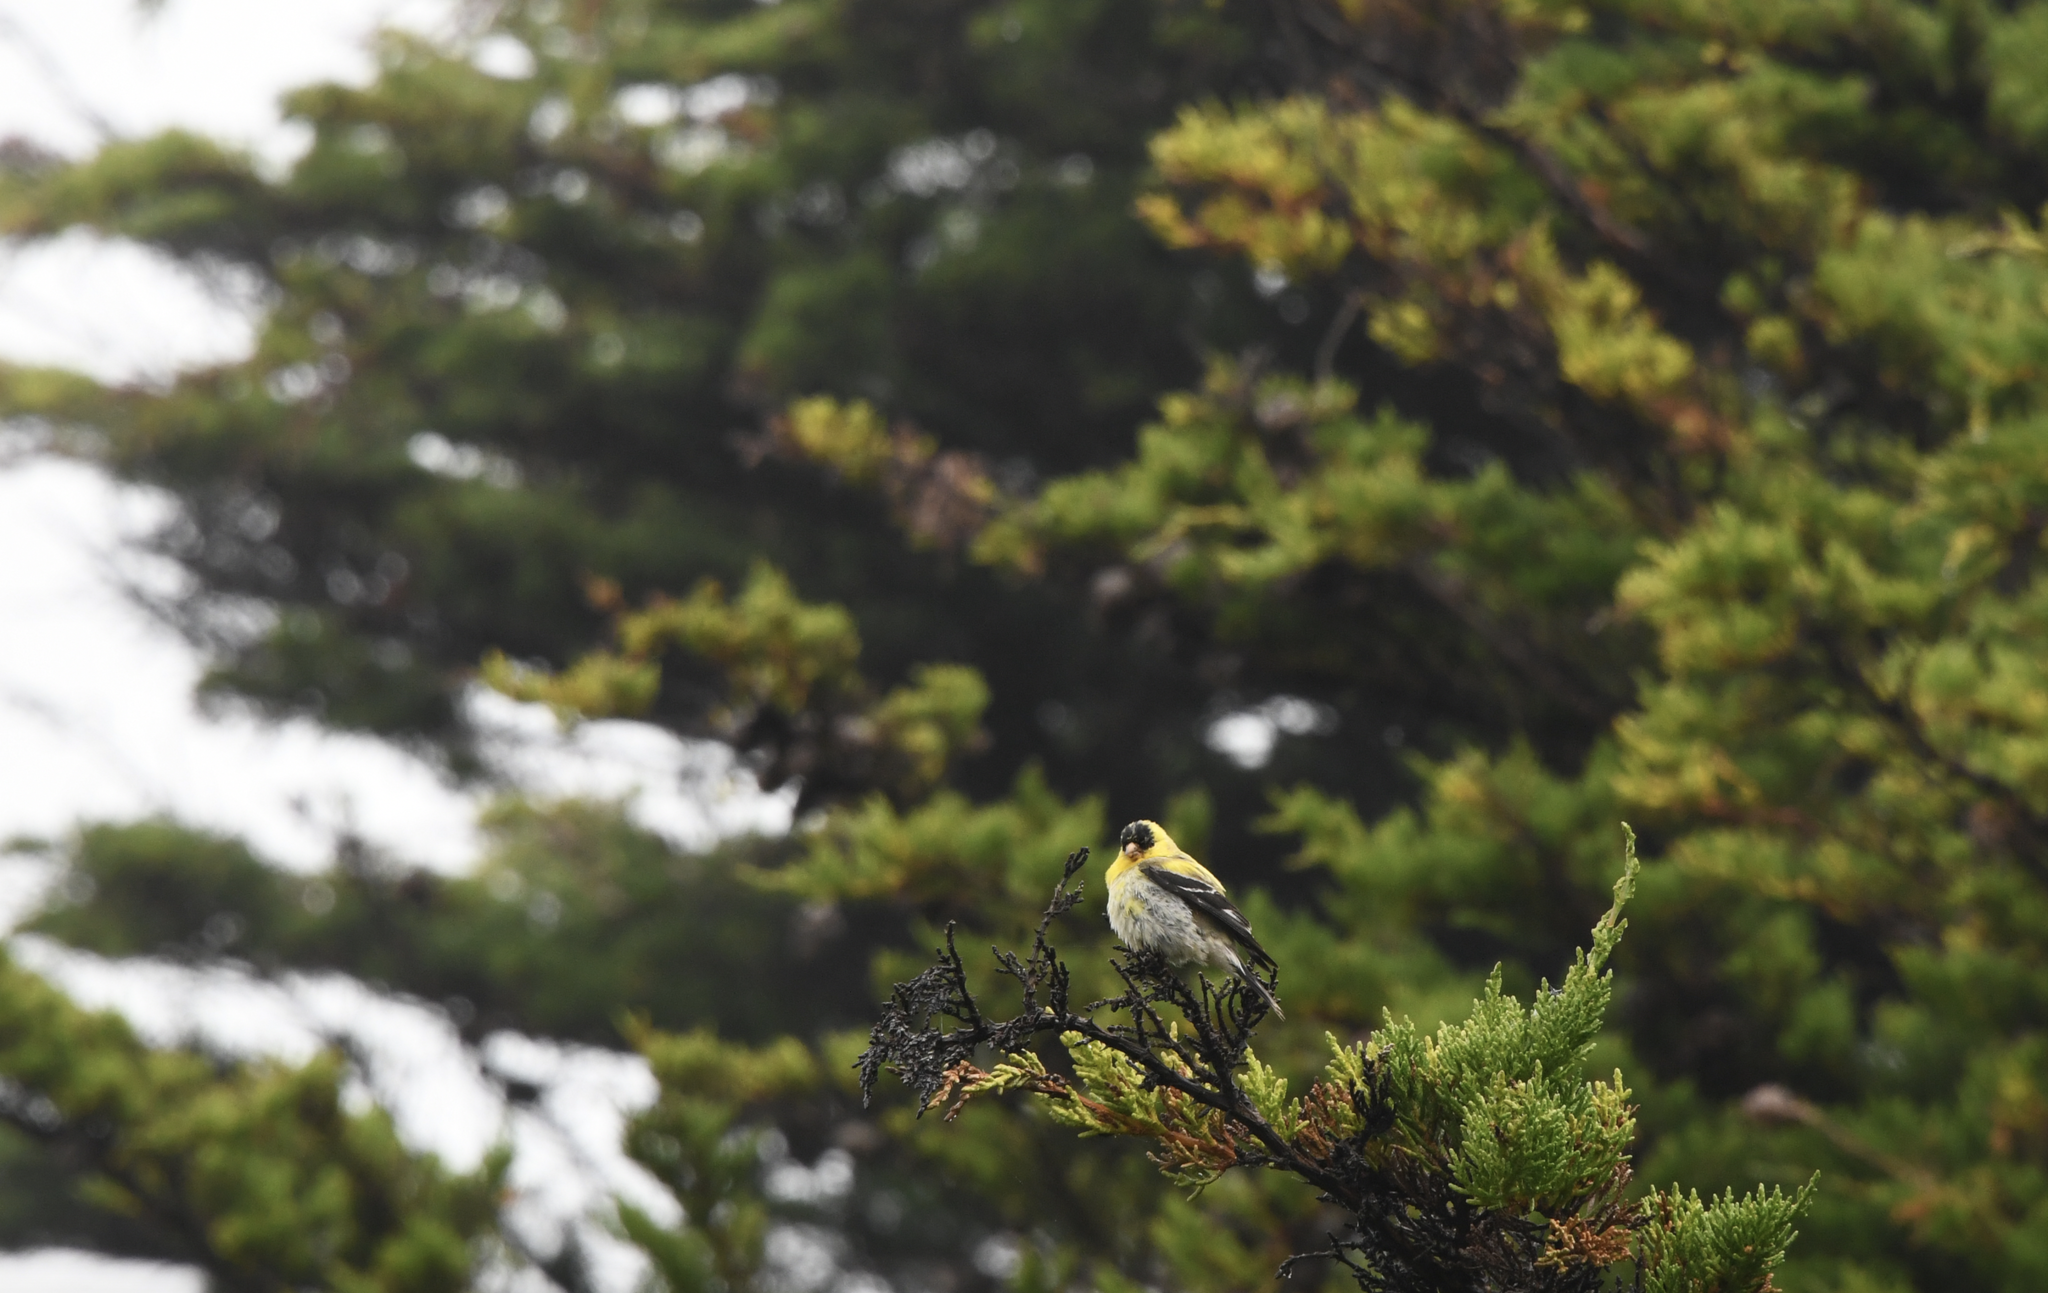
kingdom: Animalia
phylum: Chordata
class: Aves
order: Passeriformes
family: Fringillidae
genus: Spinus
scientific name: Spinus tristis
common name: American goldfinch
